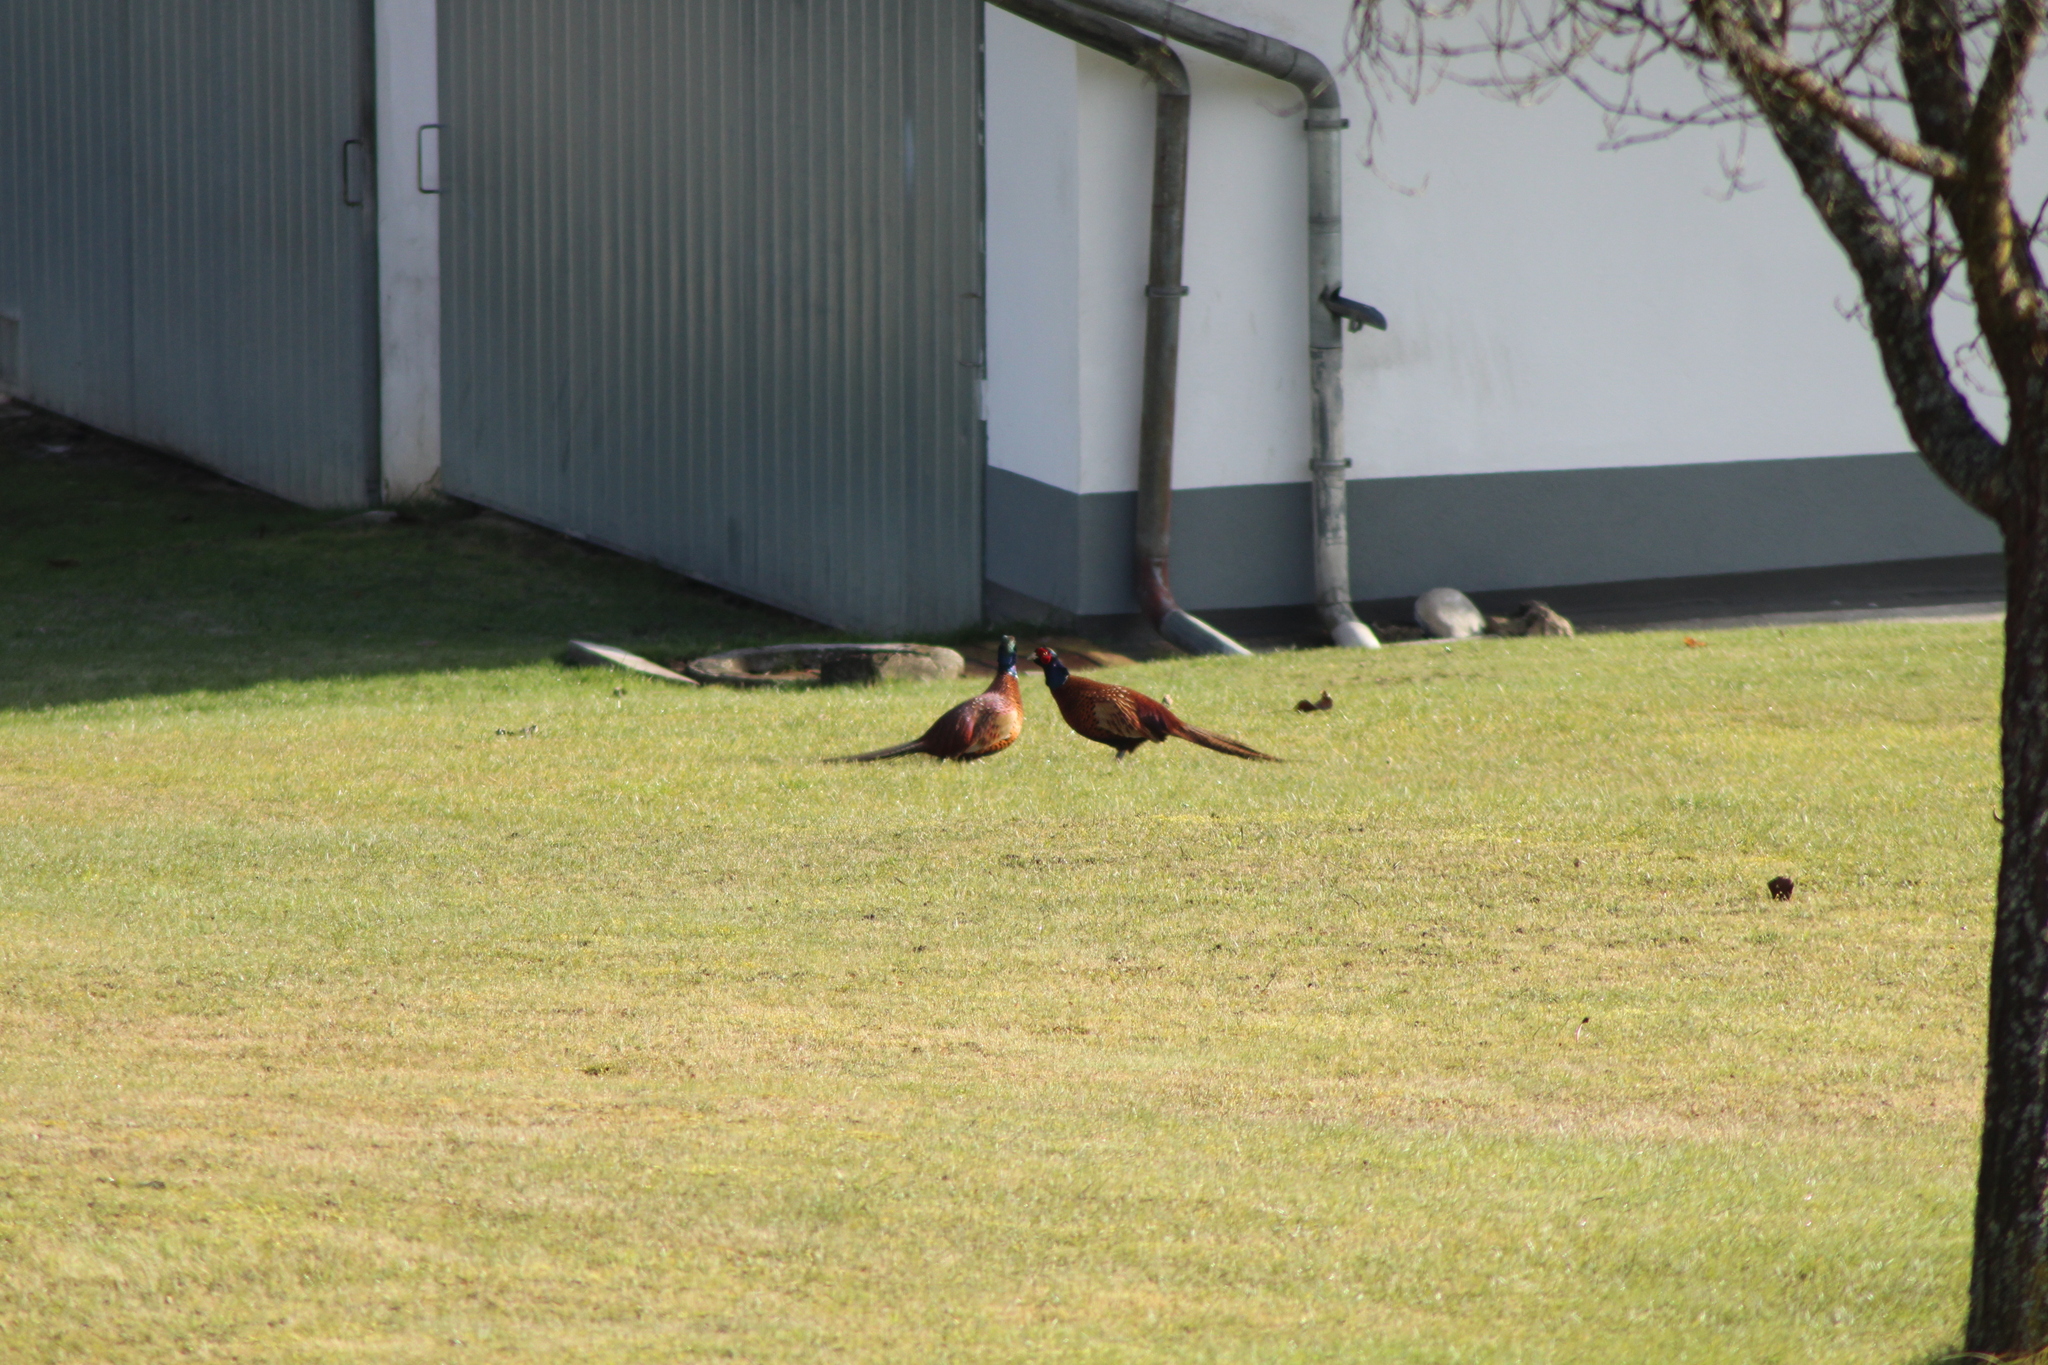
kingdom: Animalia
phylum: Chordata
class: Aves
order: Galliformes
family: Phasianidae
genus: Phasianus
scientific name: Phasianus colchicus
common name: Common pheasant
